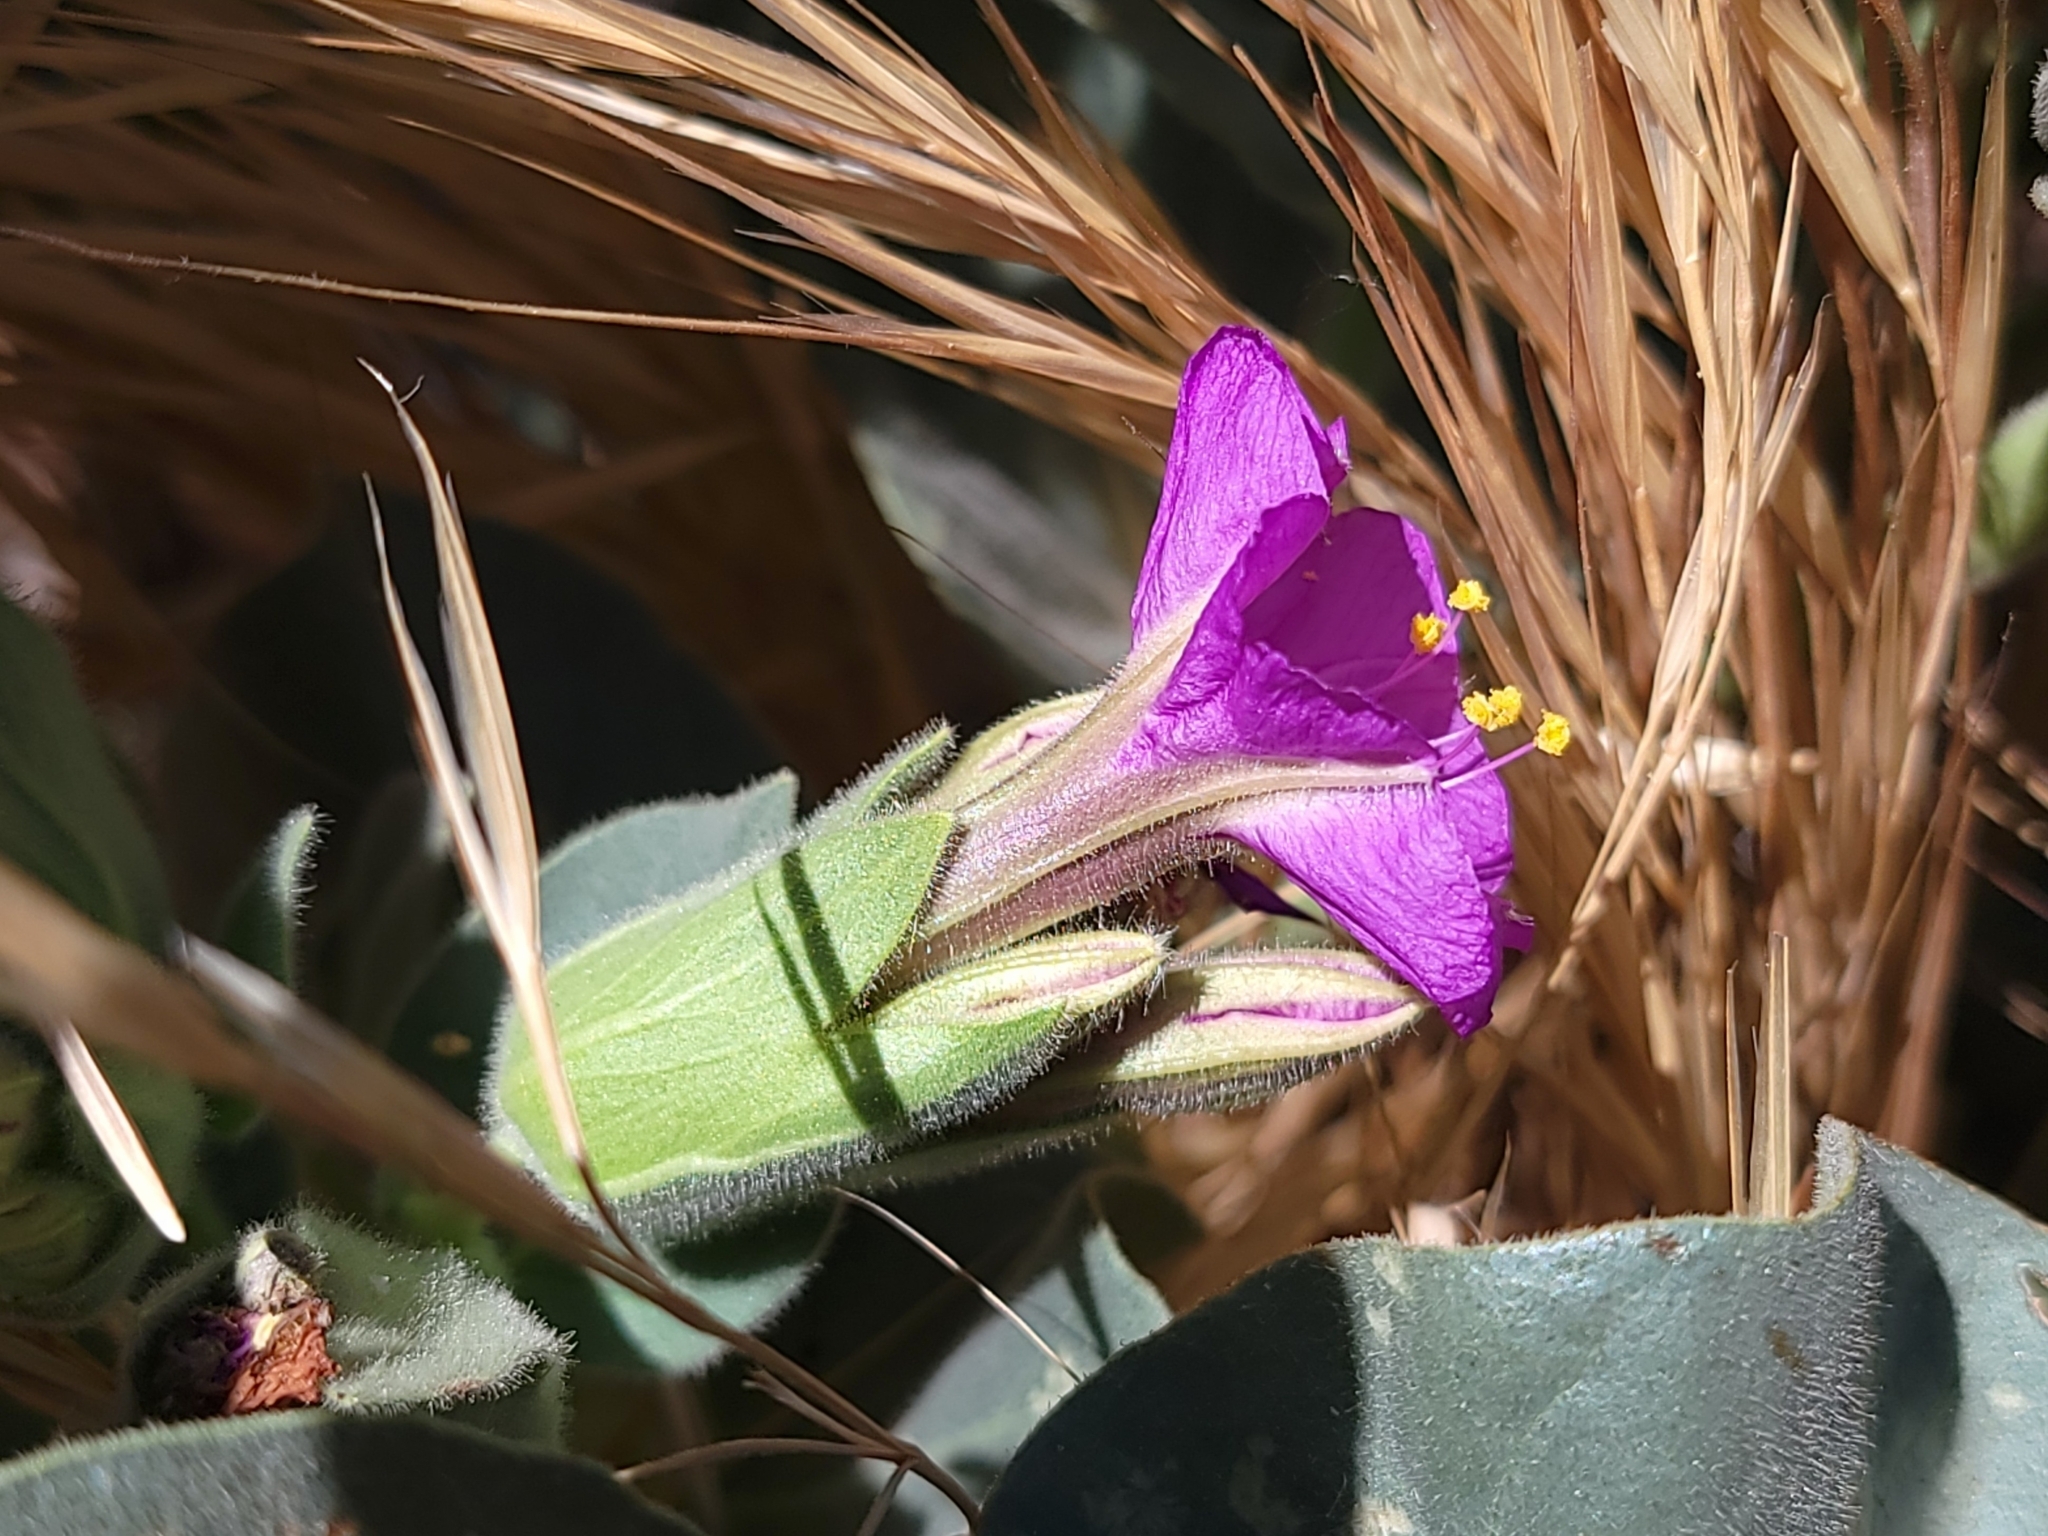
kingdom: Plantae
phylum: Tracheophyta
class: Magnoliopsida
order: Caryophyllales
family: Nyctaginaceae
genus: Mirabilis
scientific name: Mirabilis multiflora
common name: Froebel's four-o'clock
